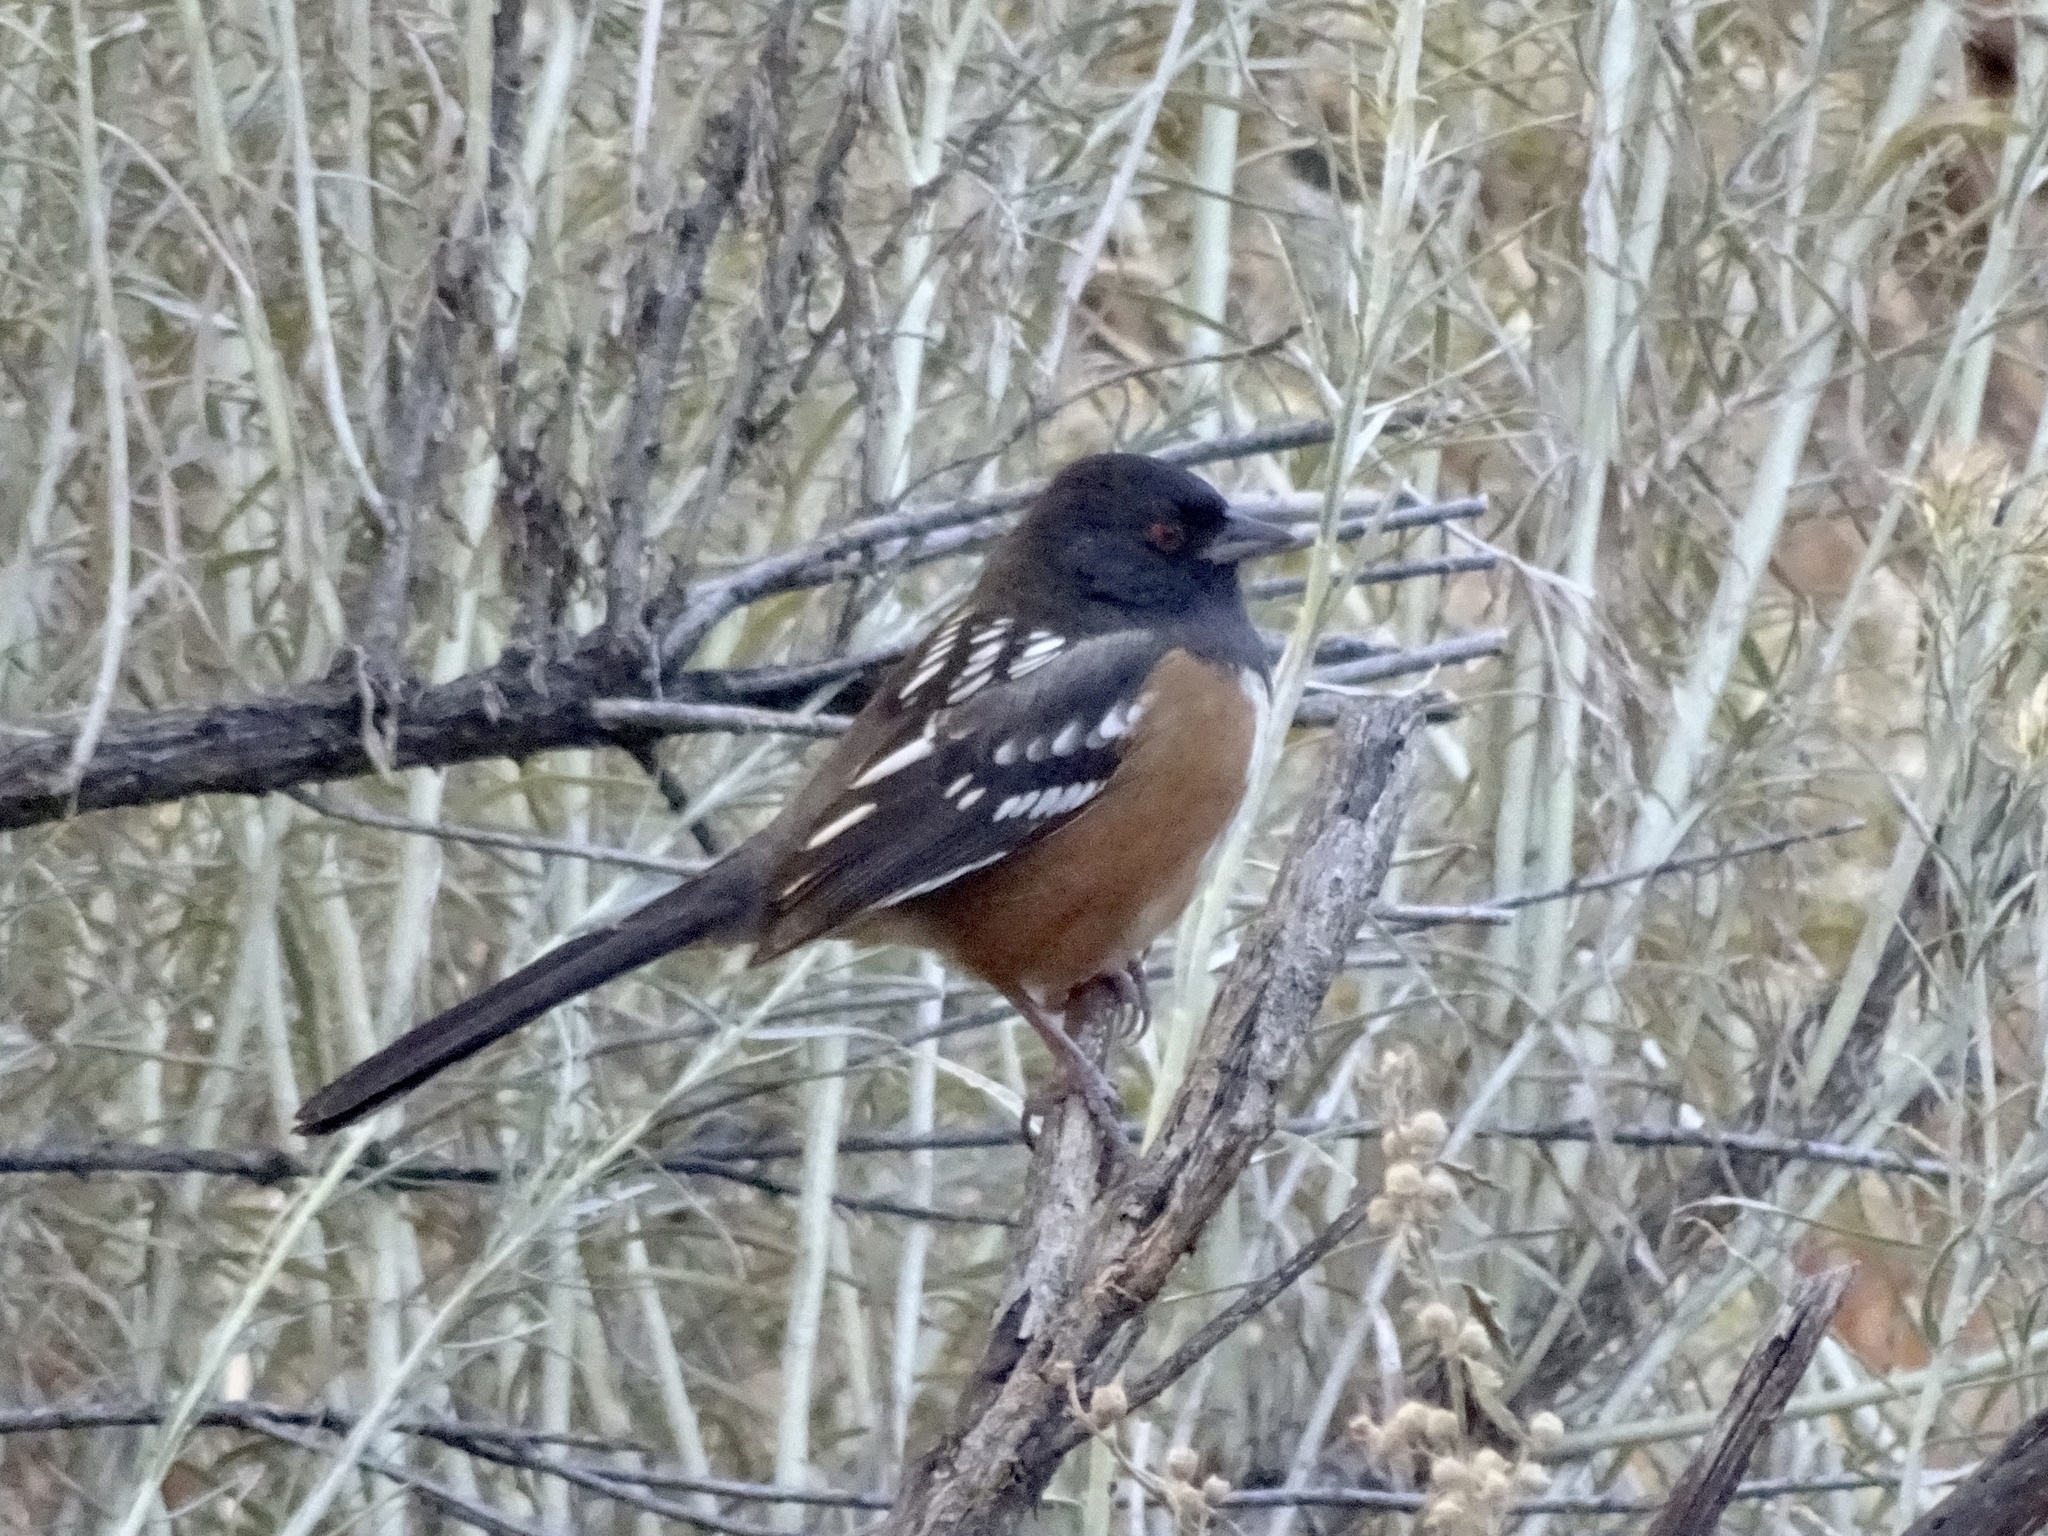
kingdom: Animalia
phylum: Chordata
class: Aves
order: Passeriformes
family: Passerellidae
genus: Pipilo
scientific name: Pipilo maculatus
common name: Spotted towhee
